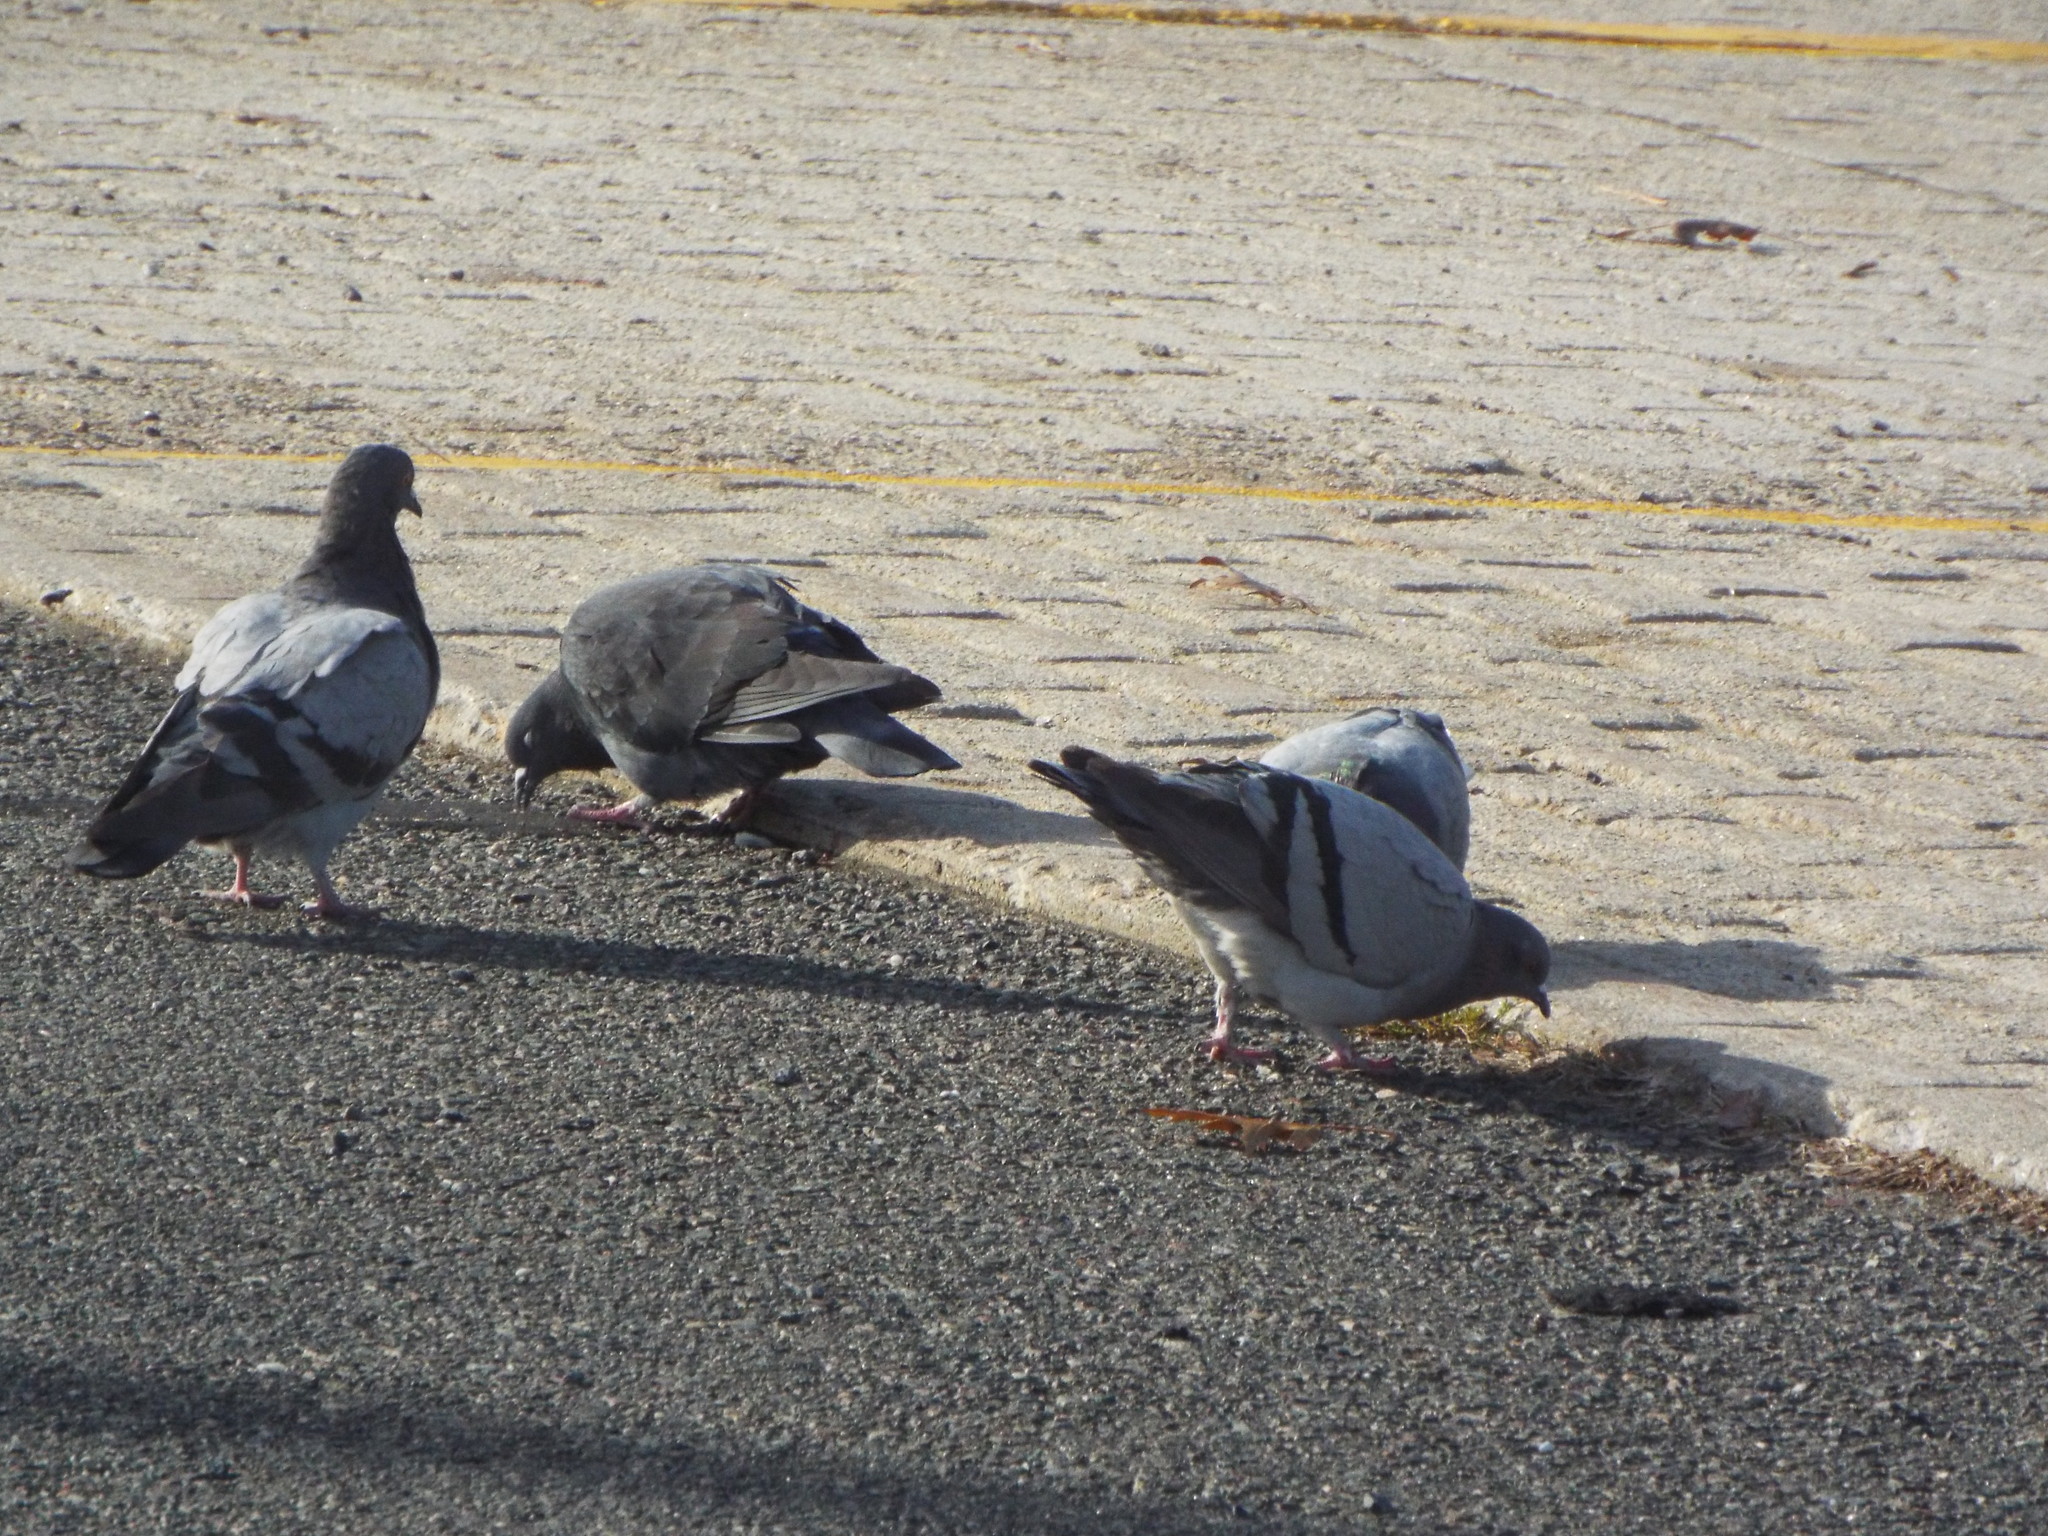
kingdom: Animalia
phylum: Chordata
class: Aves
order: Columbiformes
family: Columbidae
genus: Columba
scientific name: Columba livia
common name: Rock pigeon
